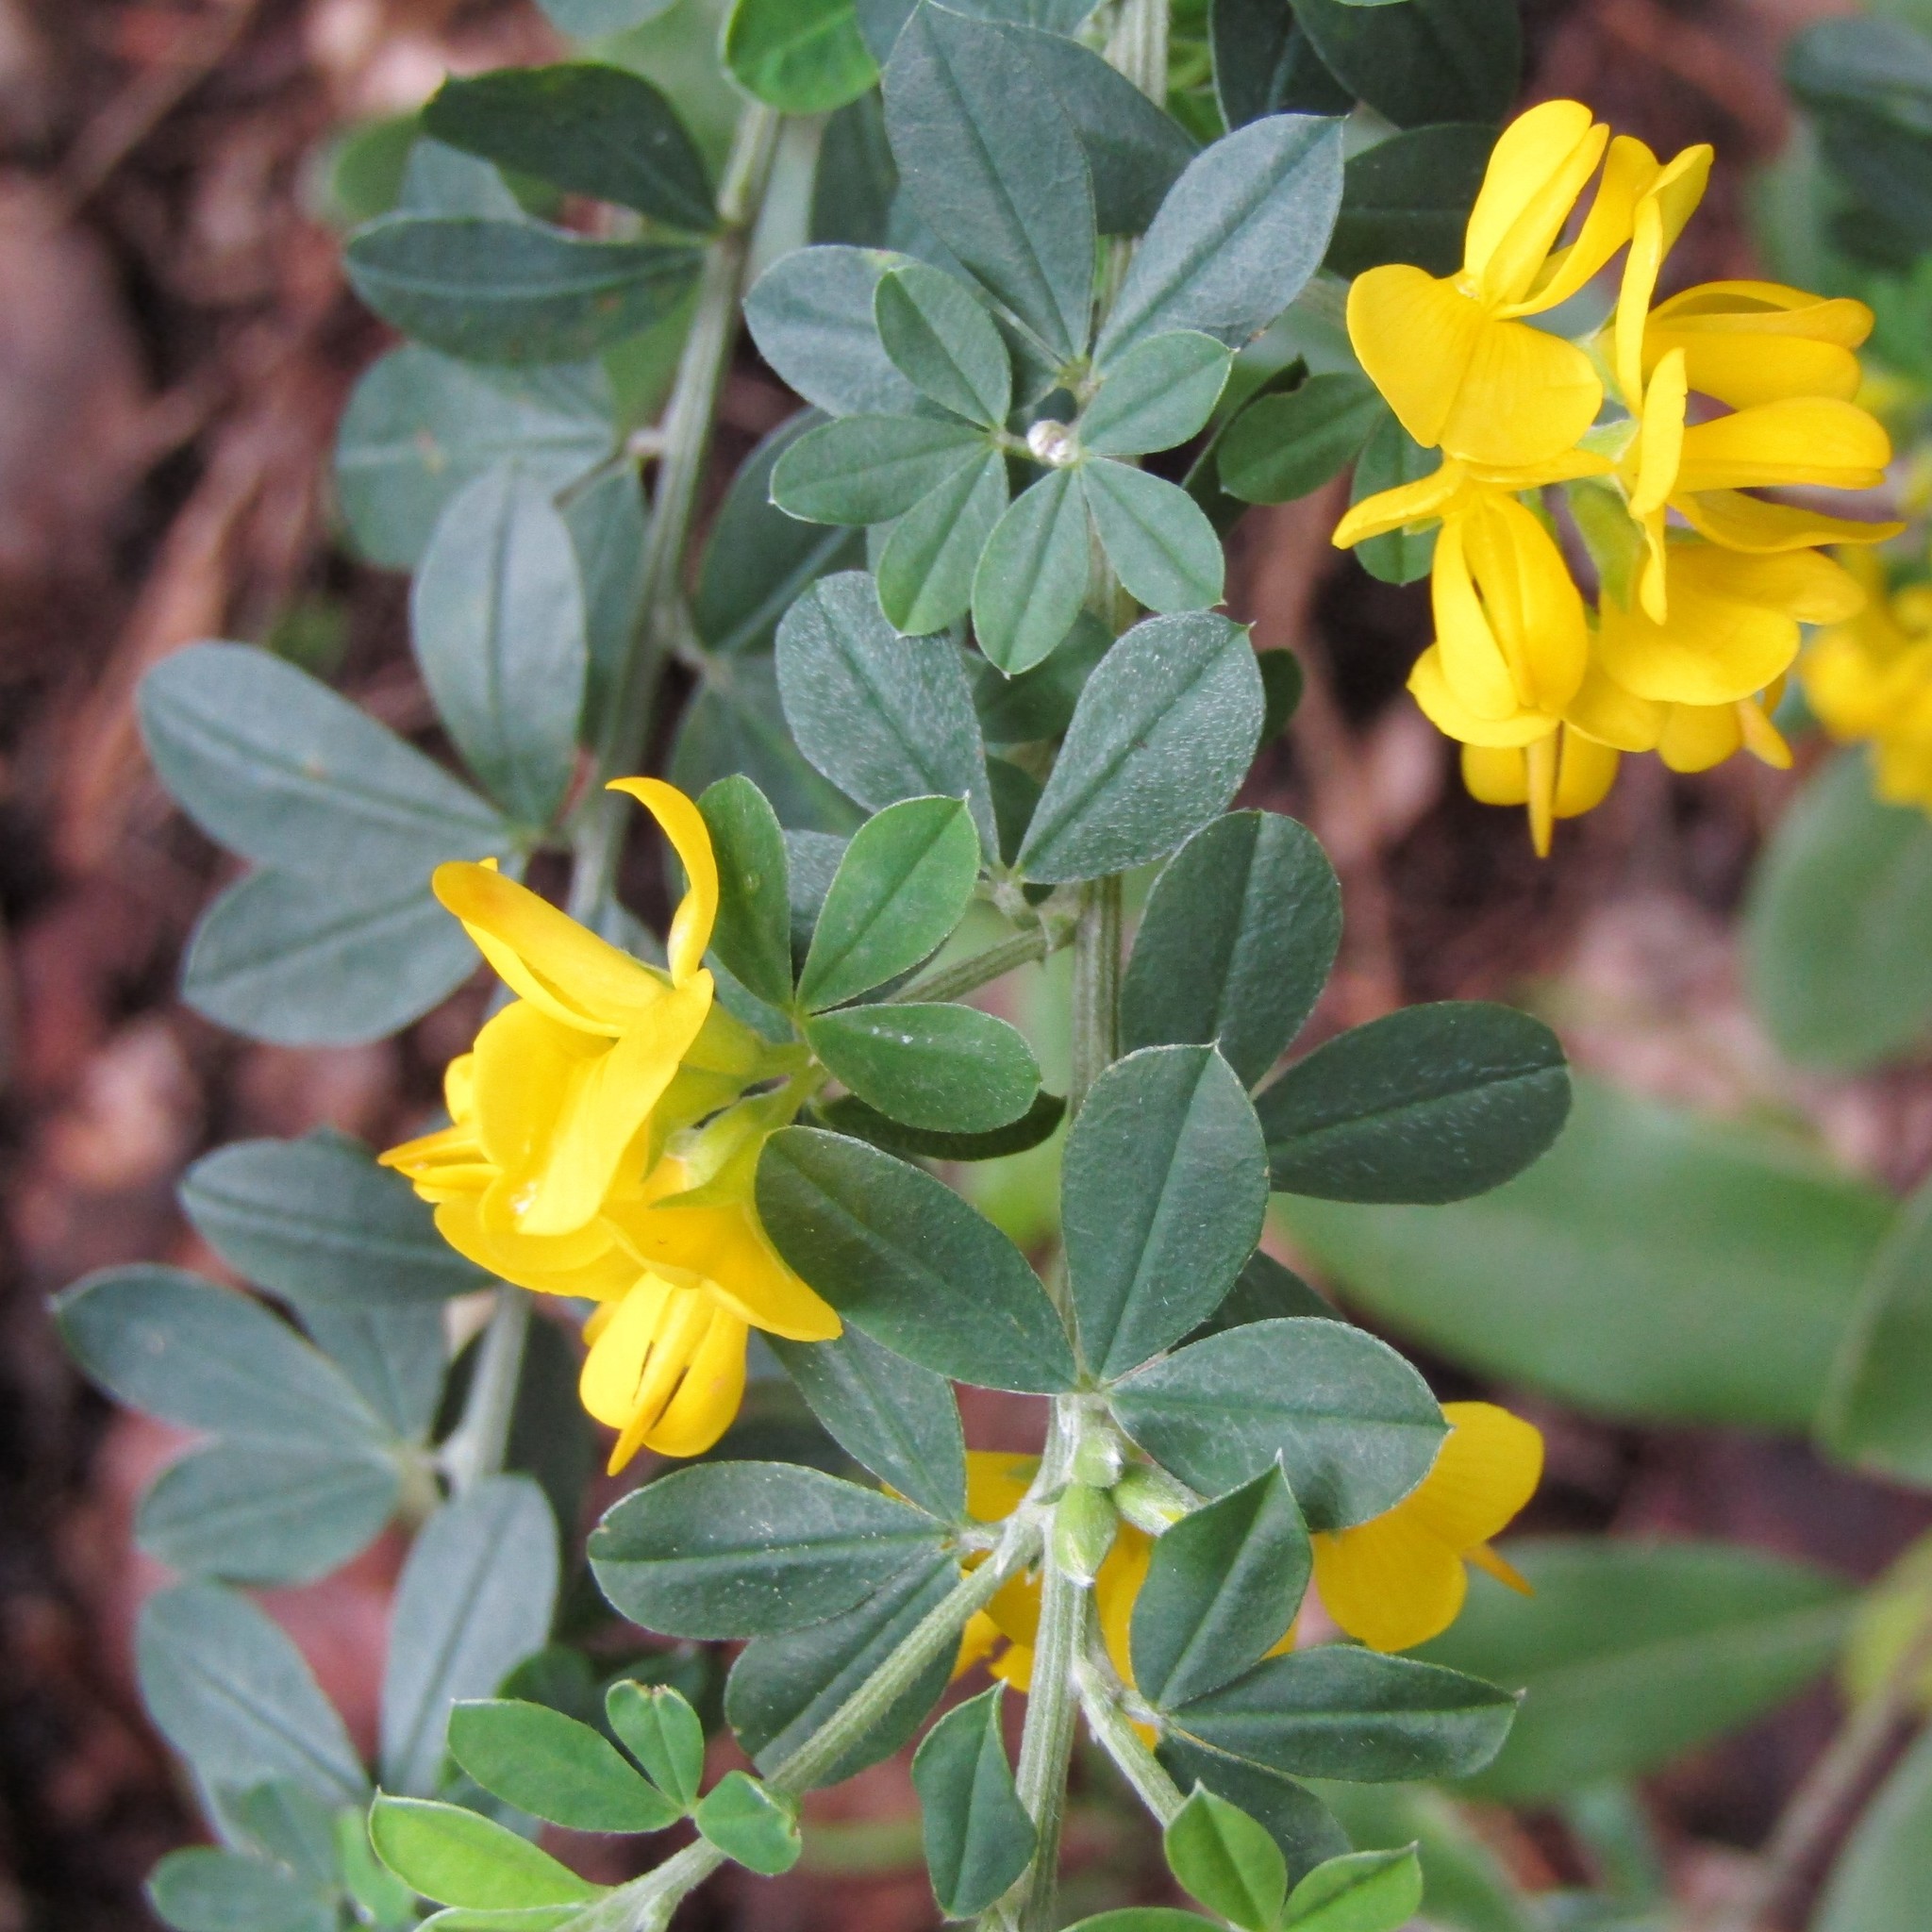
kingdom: Plantae
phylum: Tracheophyta
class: Magnoliopsida
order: Fabales
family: Fabaceae
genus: Genista
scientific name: Genista monspessulana
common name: Montpellier broom
